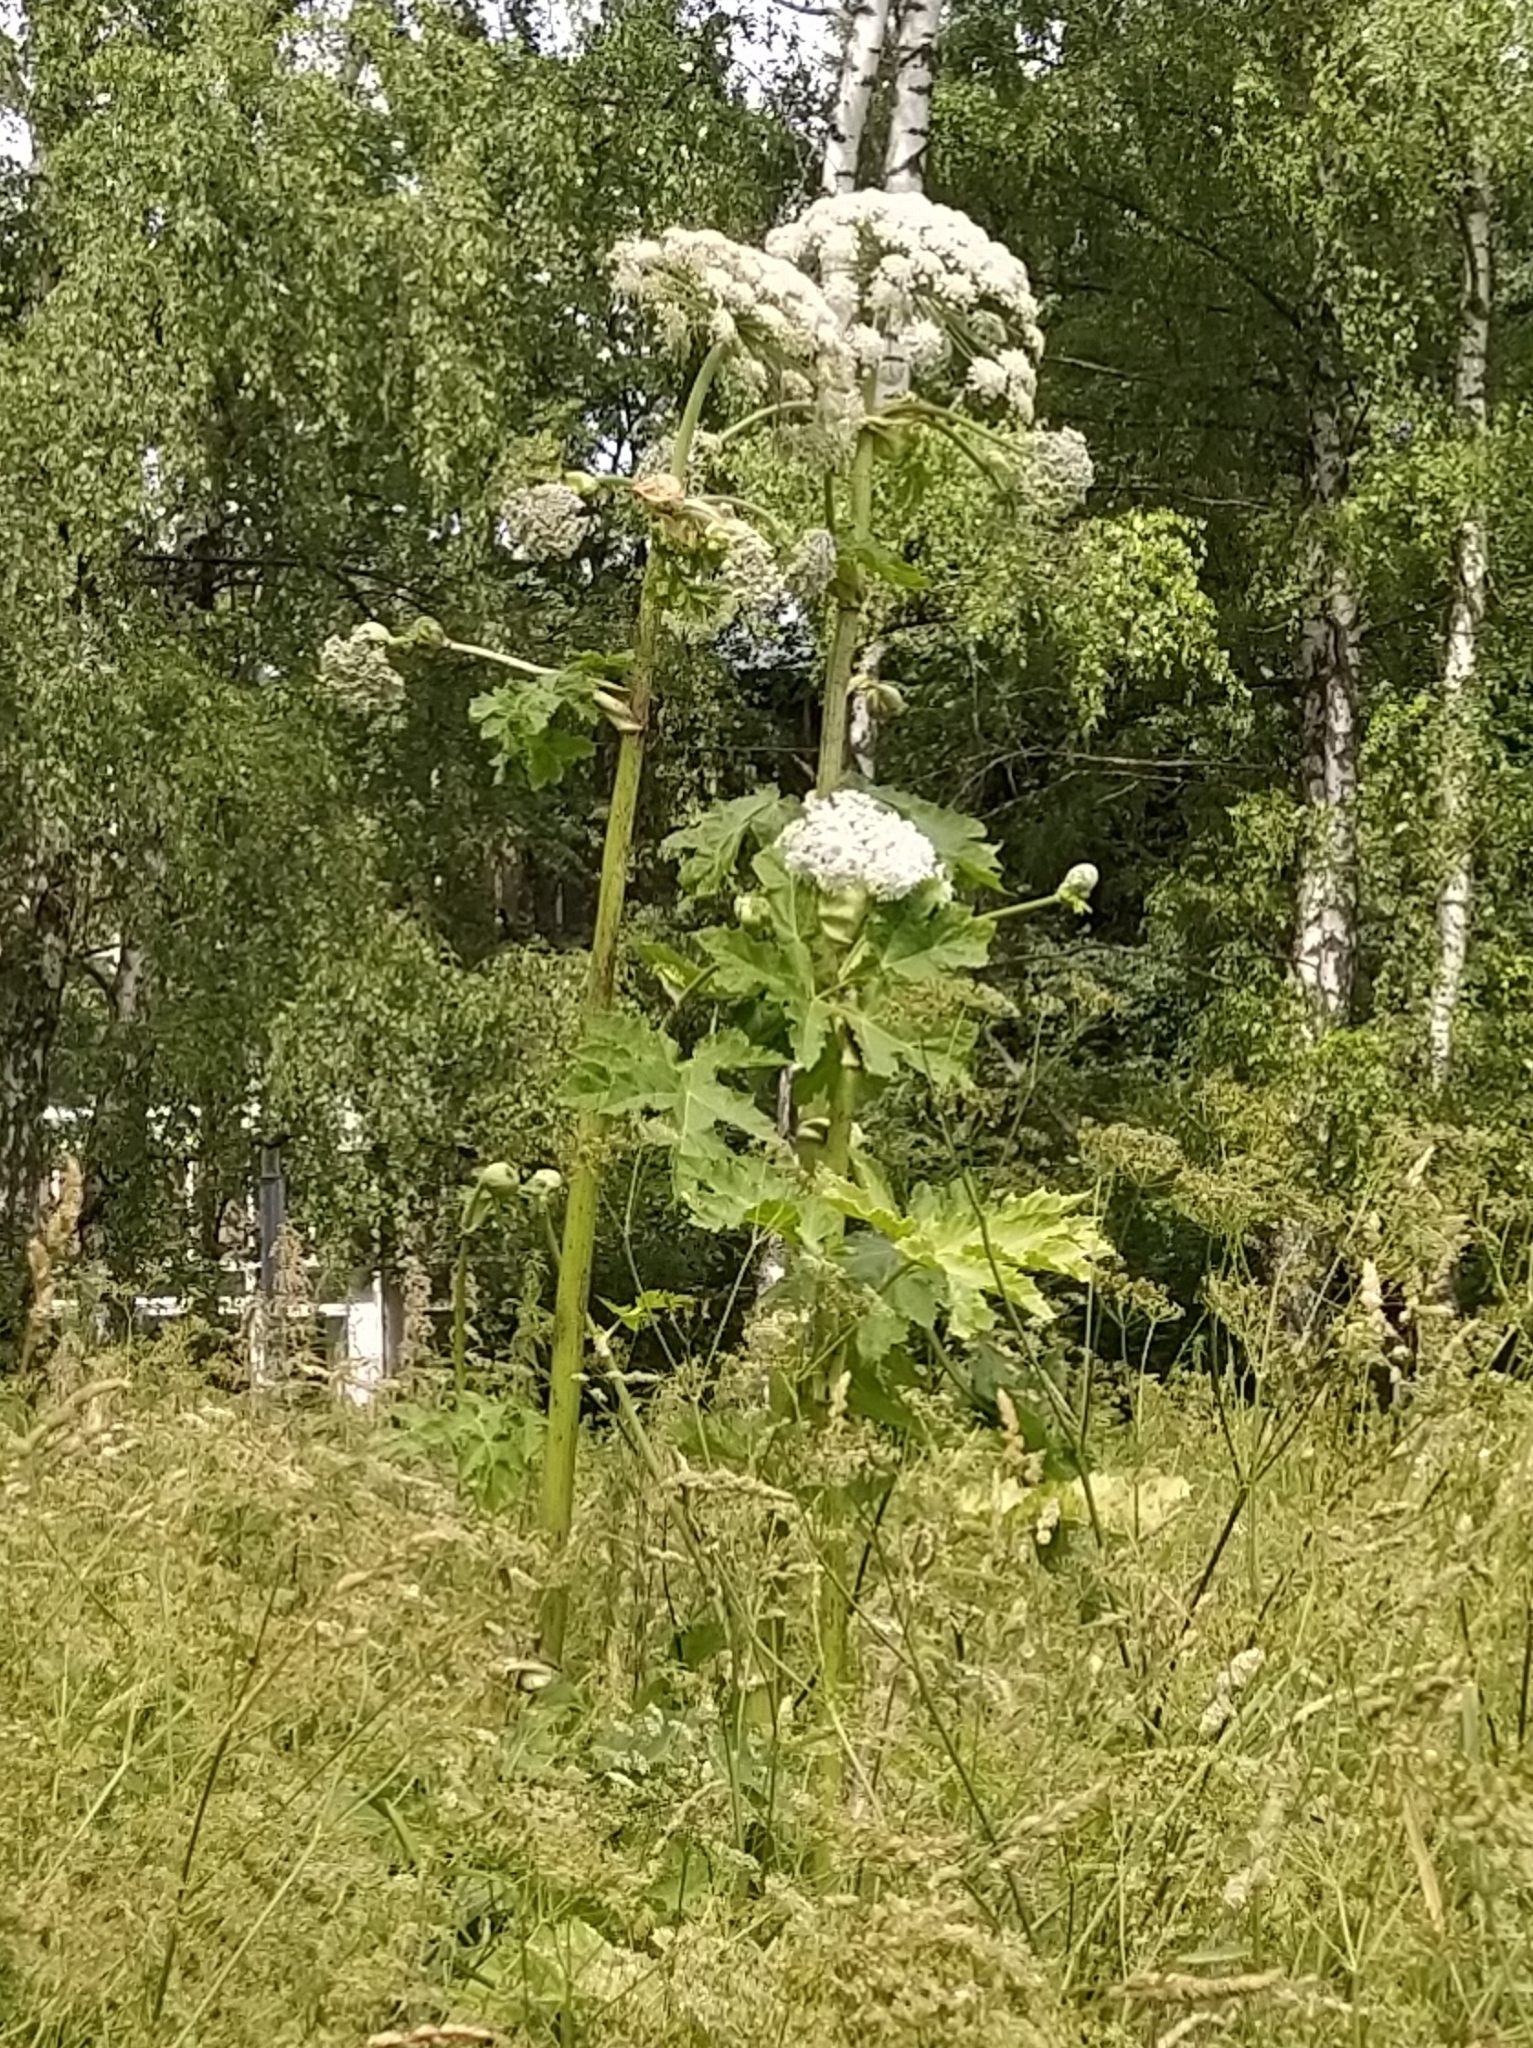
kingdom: Plantae
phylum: Tracheophyta
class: Magnoliopsida
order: Apiales
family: Apiaceae
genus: Heracleum
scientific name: Heracleum sosnowskyi
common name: Sosnowsky's hogweed
